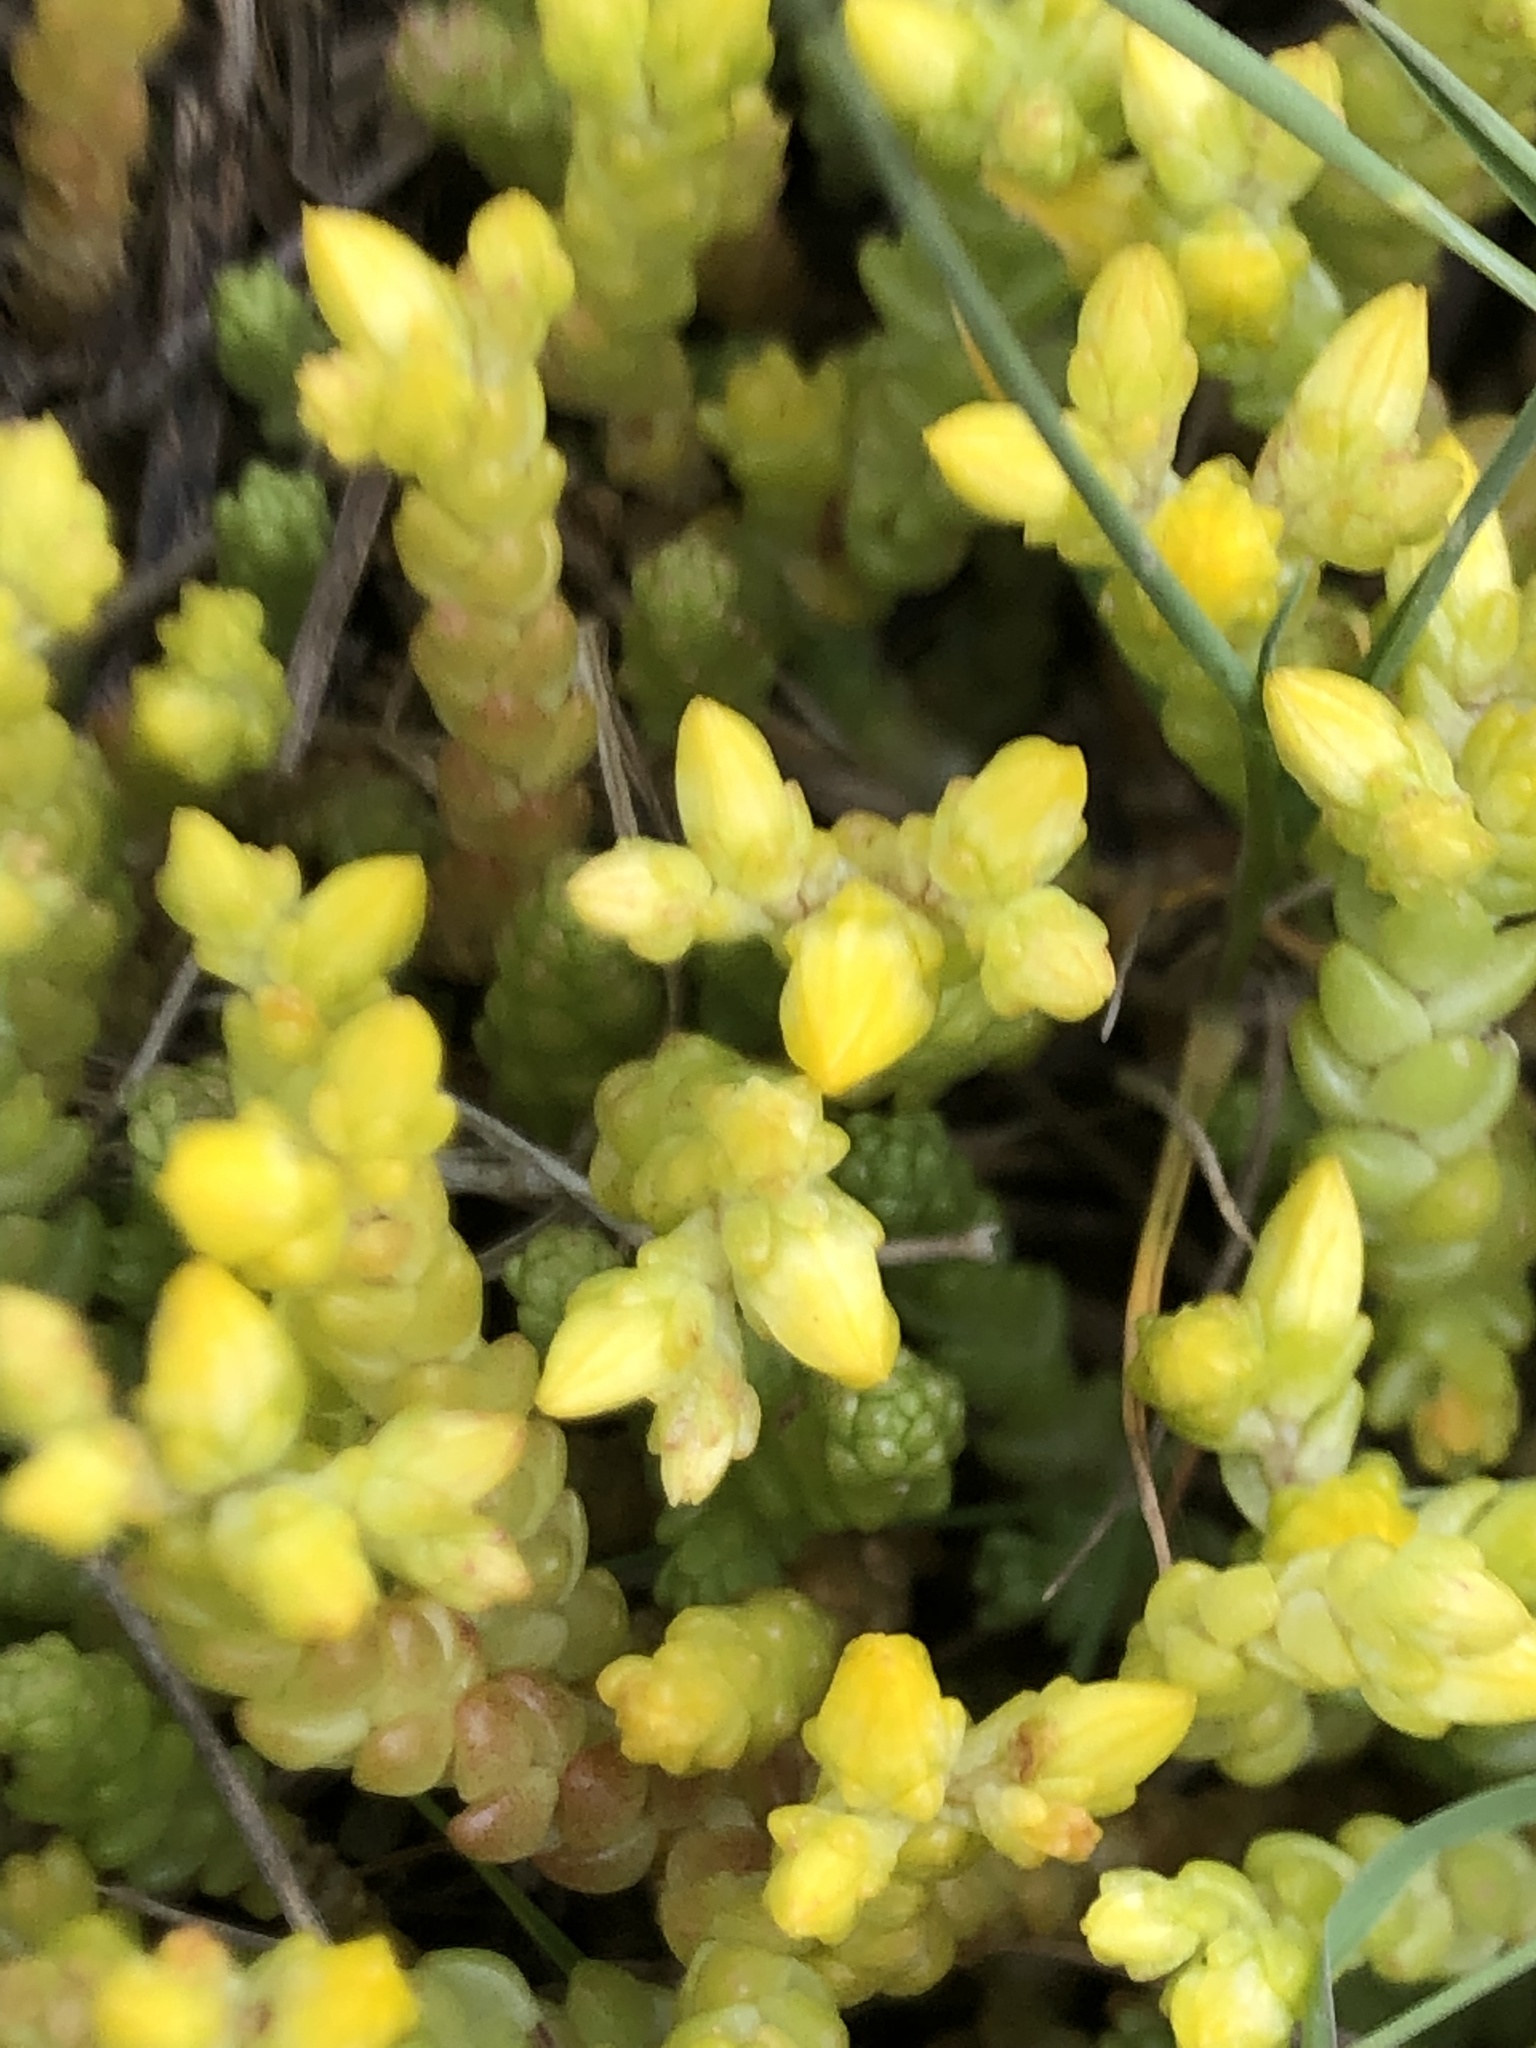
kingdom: Plantae
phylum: Tracheophyta
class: Magnoliopsida
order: Saxifragales
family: Crassulaceae
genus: Sedum
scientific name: Sedum acre
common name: Biting stonecrop
